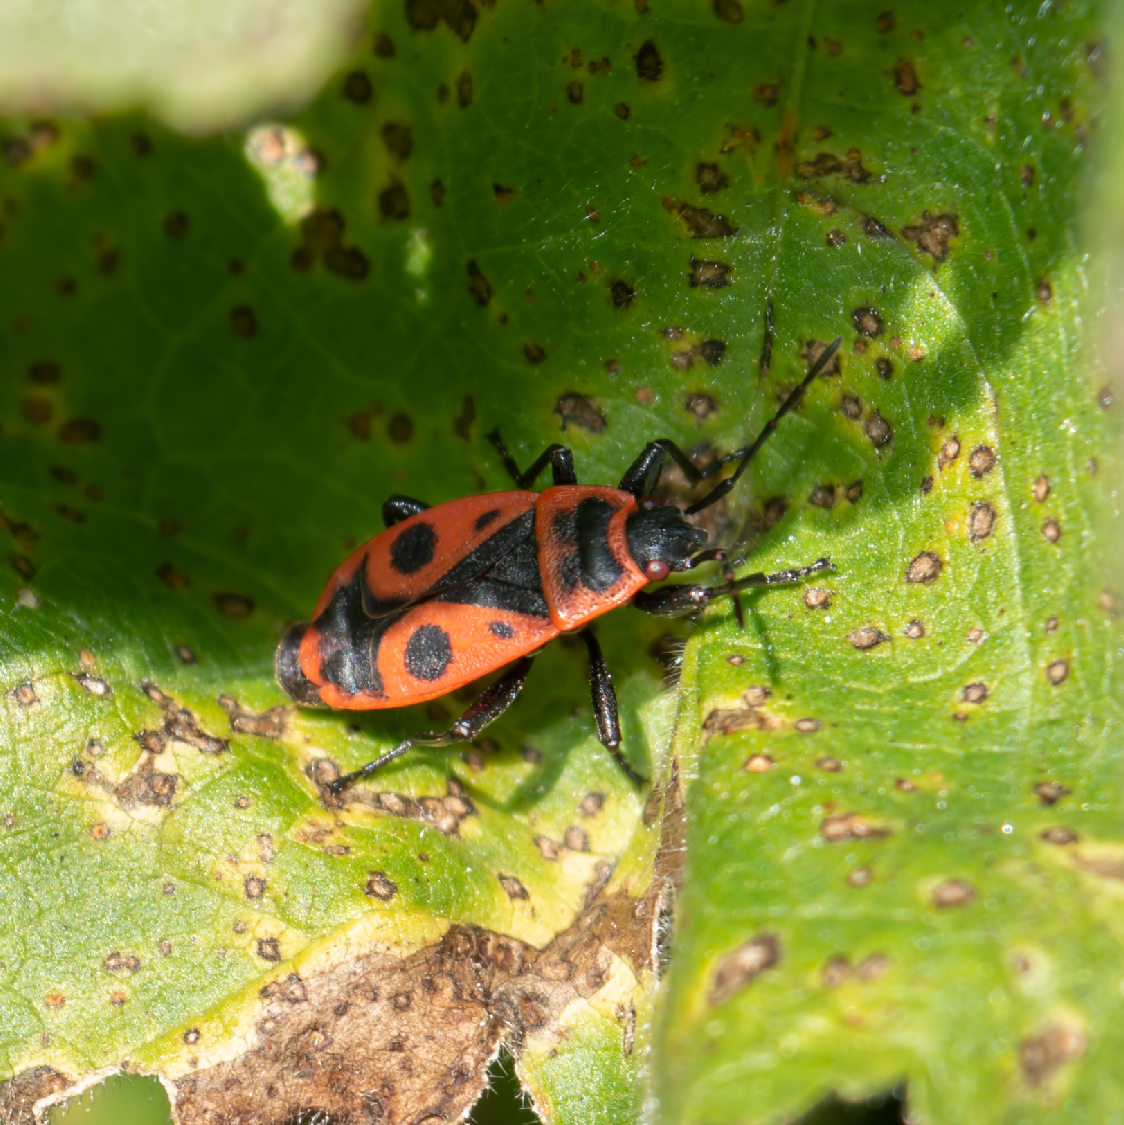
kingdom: Animalia
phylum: Arthropoda
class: Insecta
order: Hemiptera
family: Pyrrhocoridae
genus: Pyrrhocoris
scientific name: Pyrrhocoris apterus
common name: Firebug
